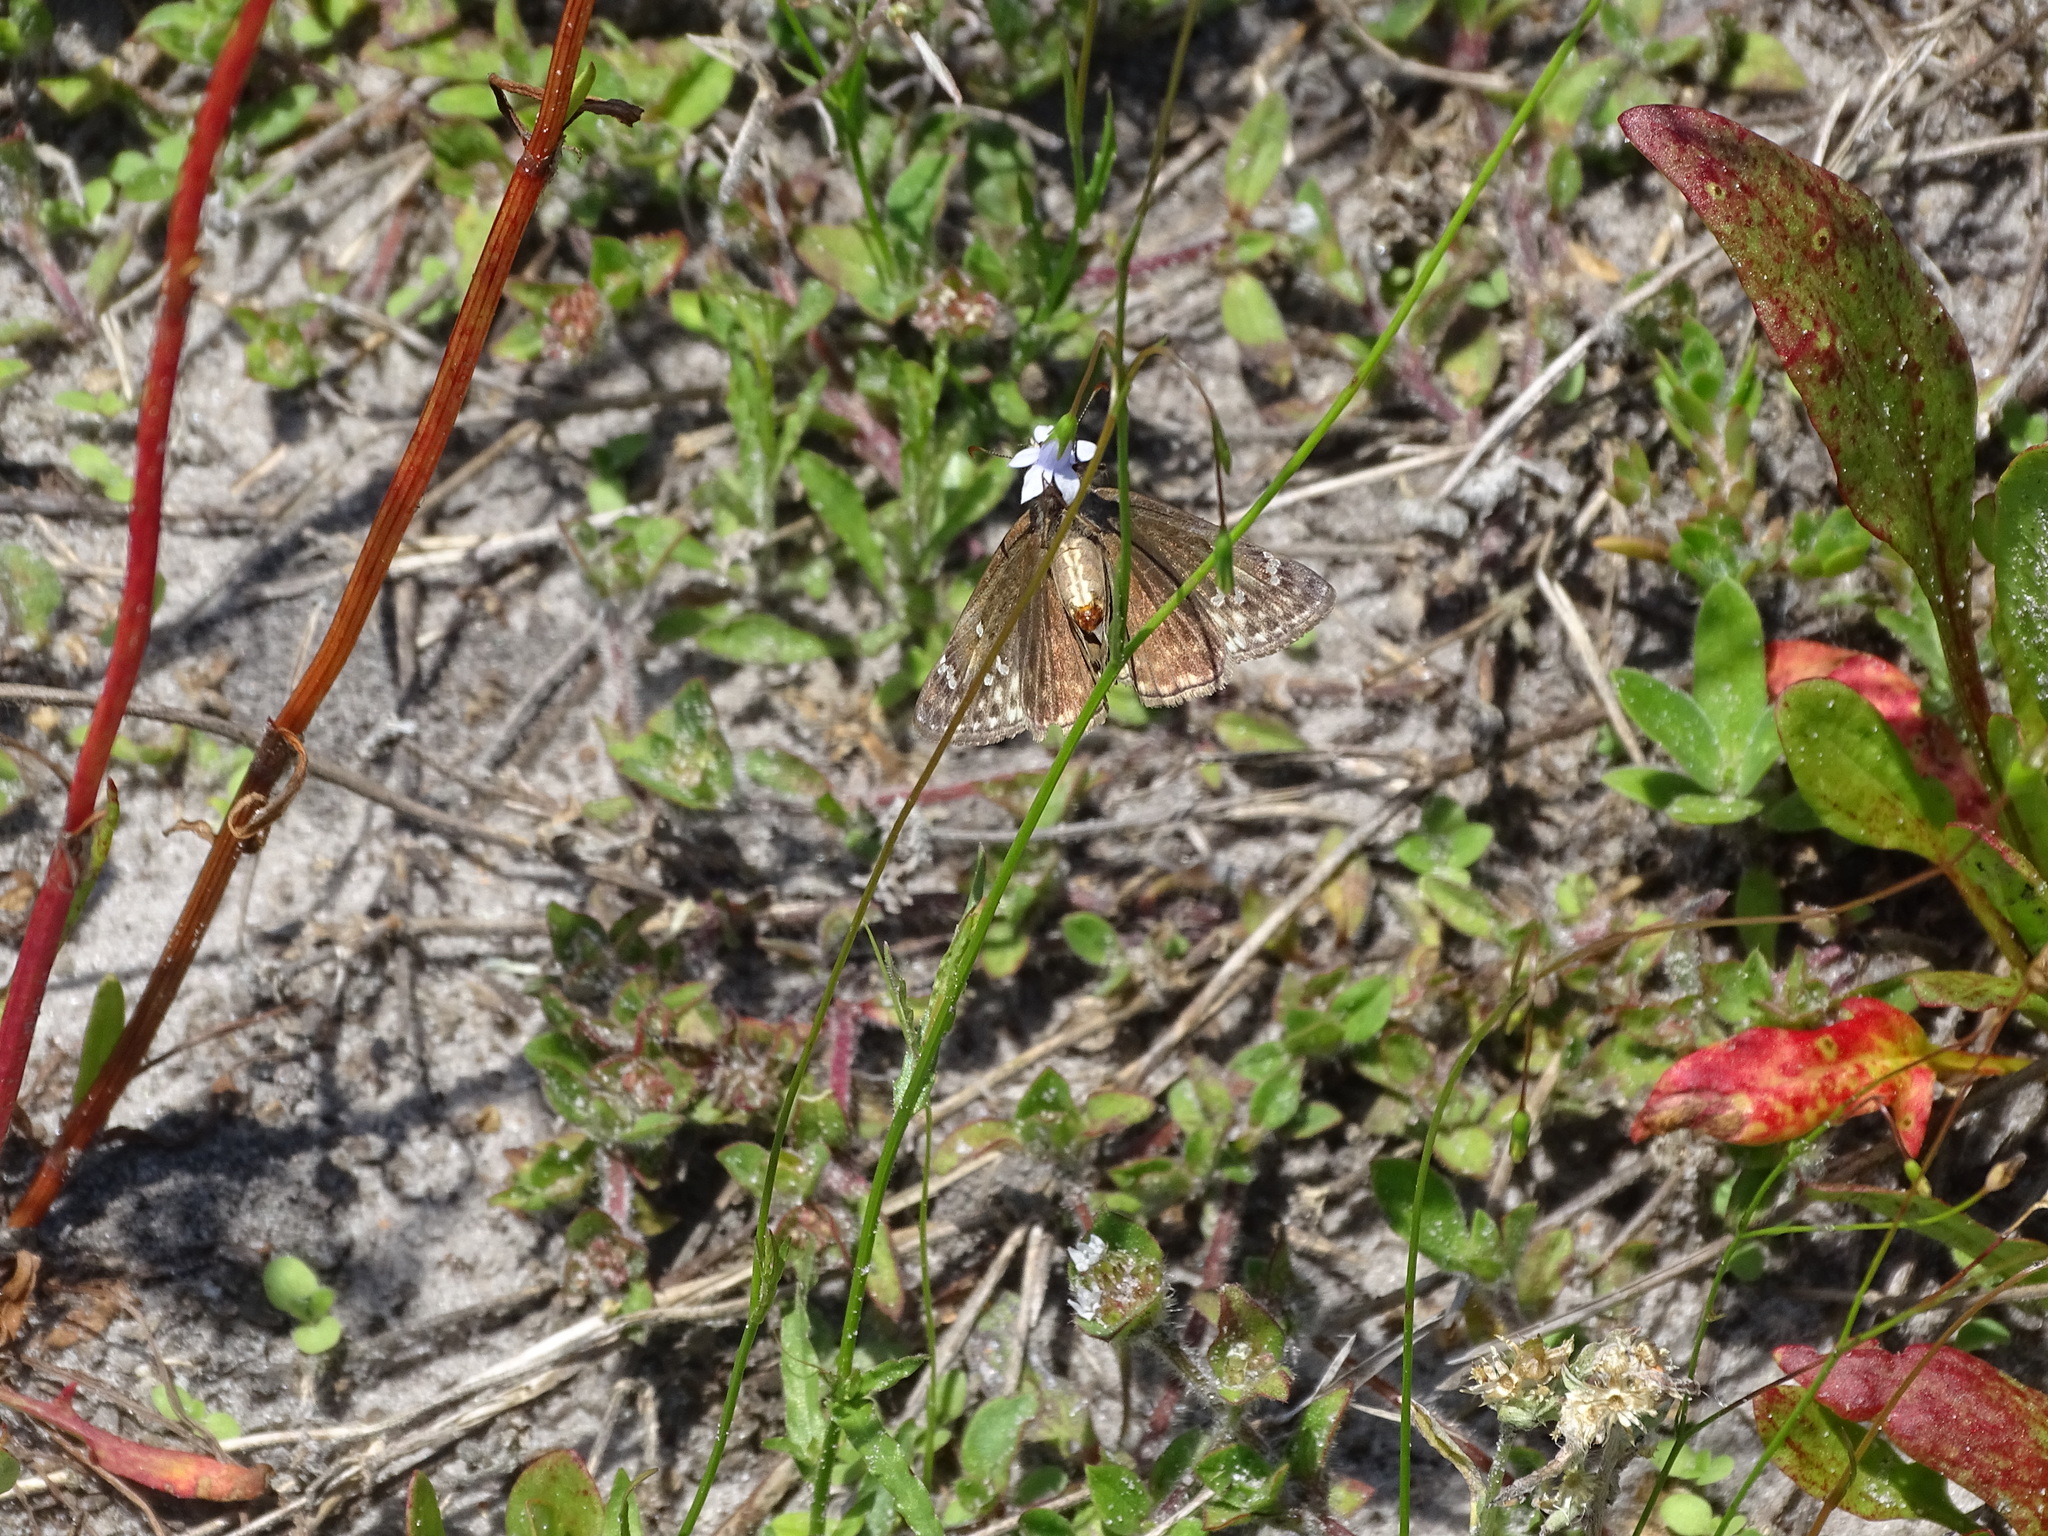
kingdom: Animalia
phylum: Arthropoda
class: Insecta
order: Lepidoptera
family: Hesperiidae
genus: Erynnis
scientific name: Erynnis horatius
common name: Horace's duskywing
